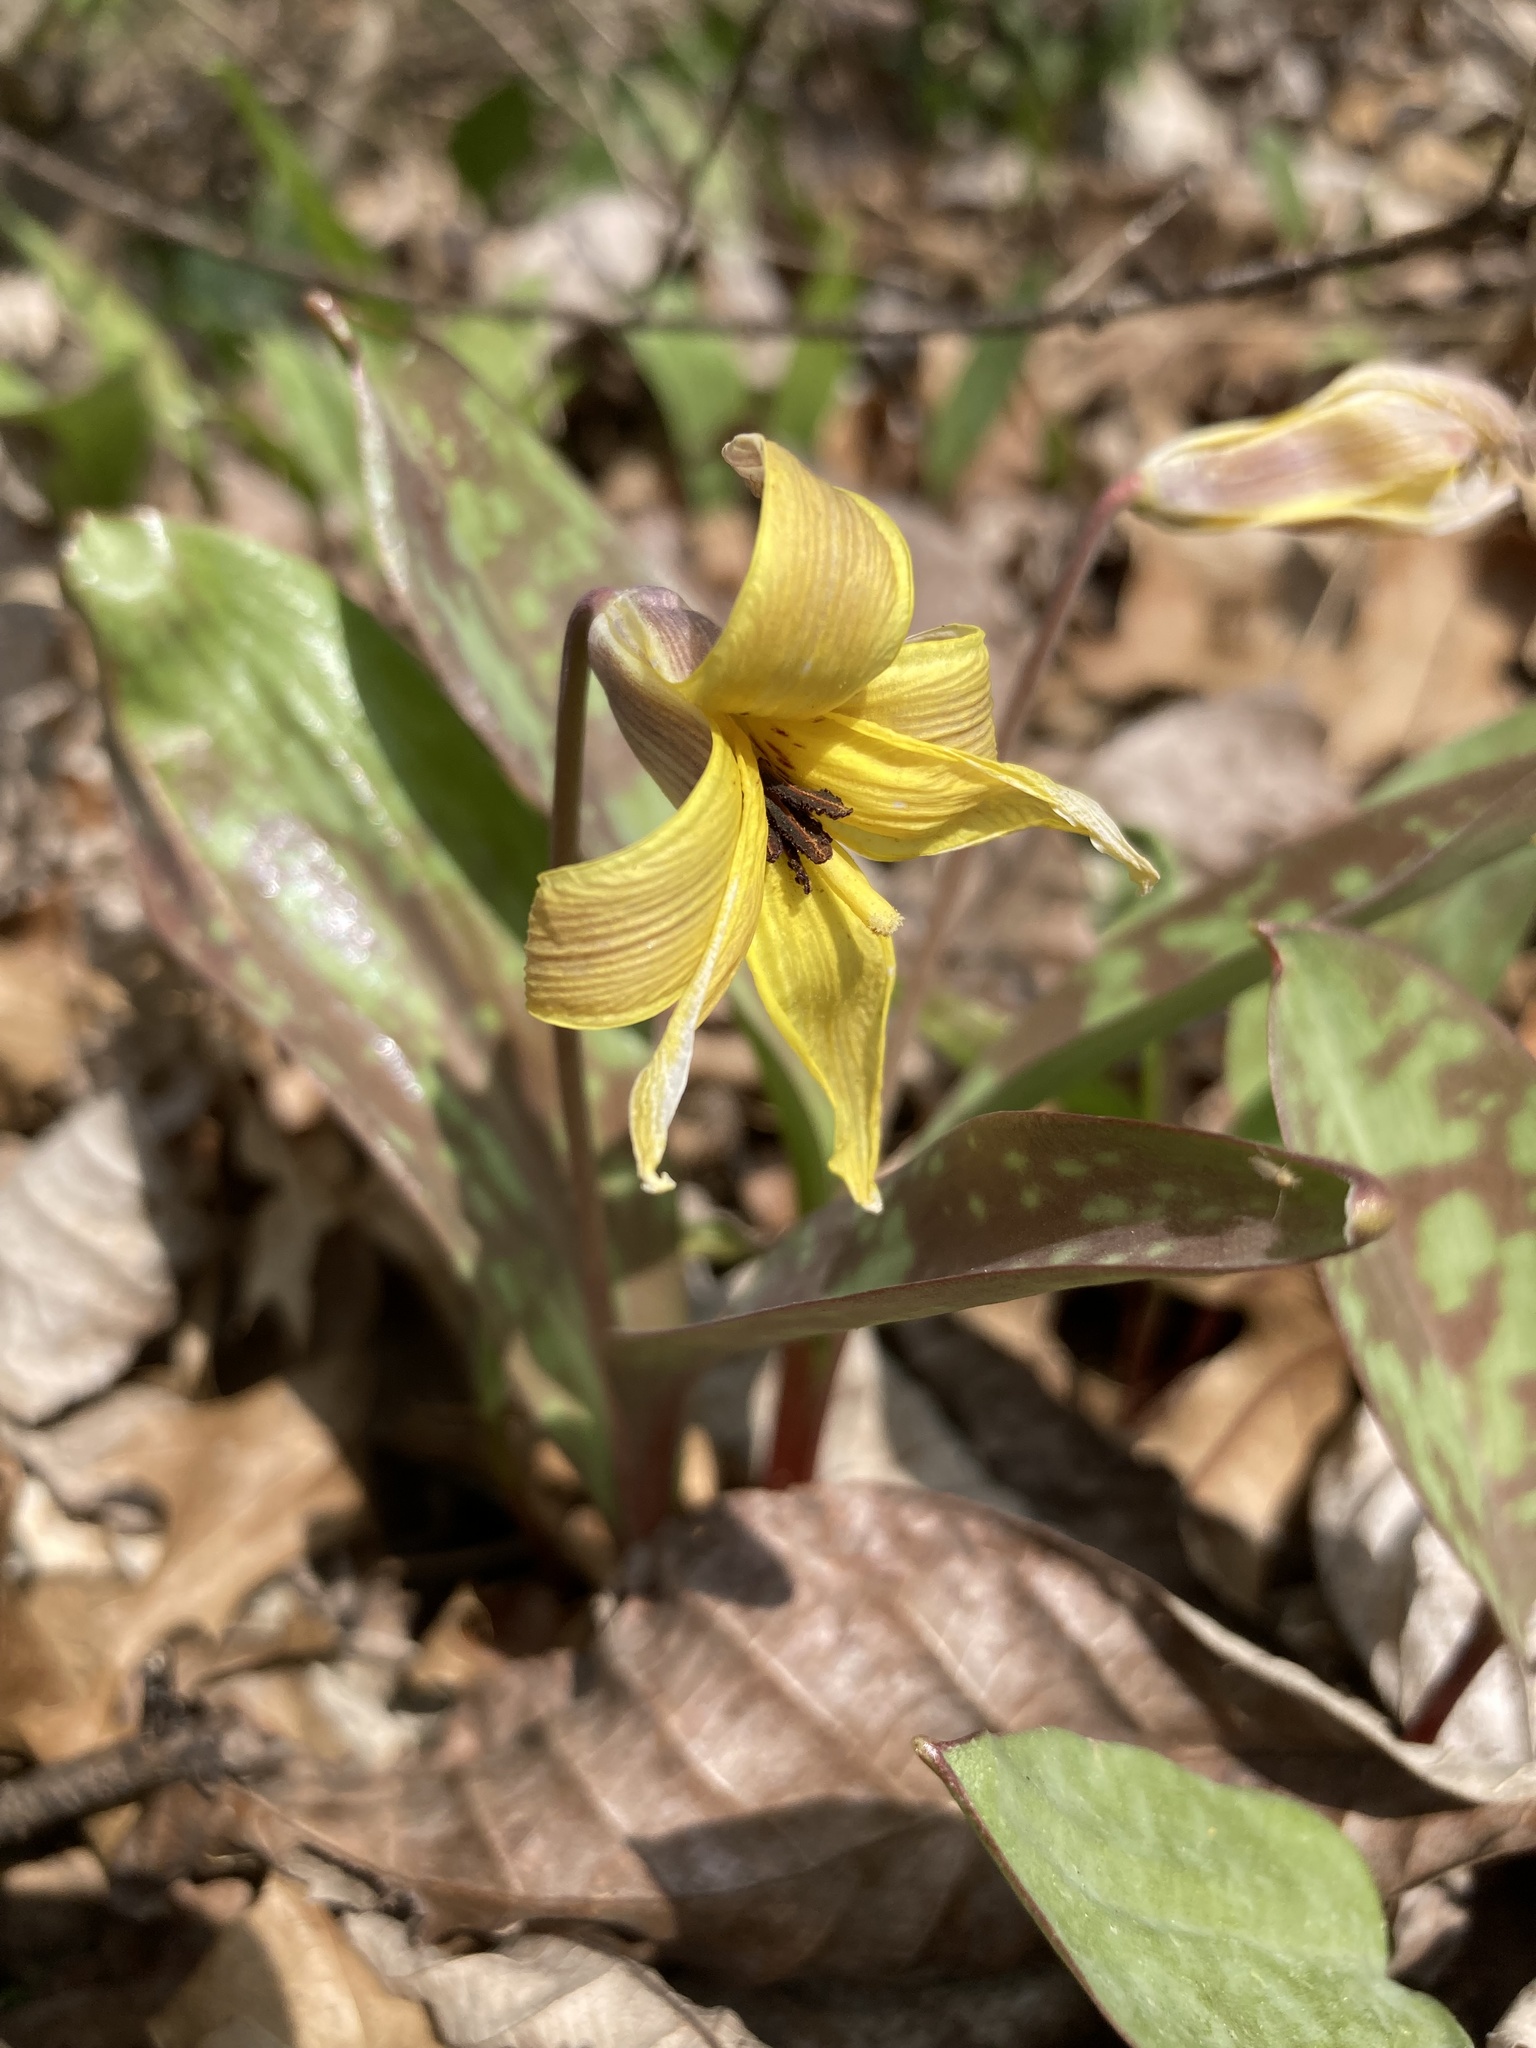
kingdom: Plantae
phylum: Tracheophyta
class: Liliopsida
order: Liliales
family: Liliaceae
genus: Erythronium
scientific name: Erythronium americanum
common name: Yellow adder's-tongue
